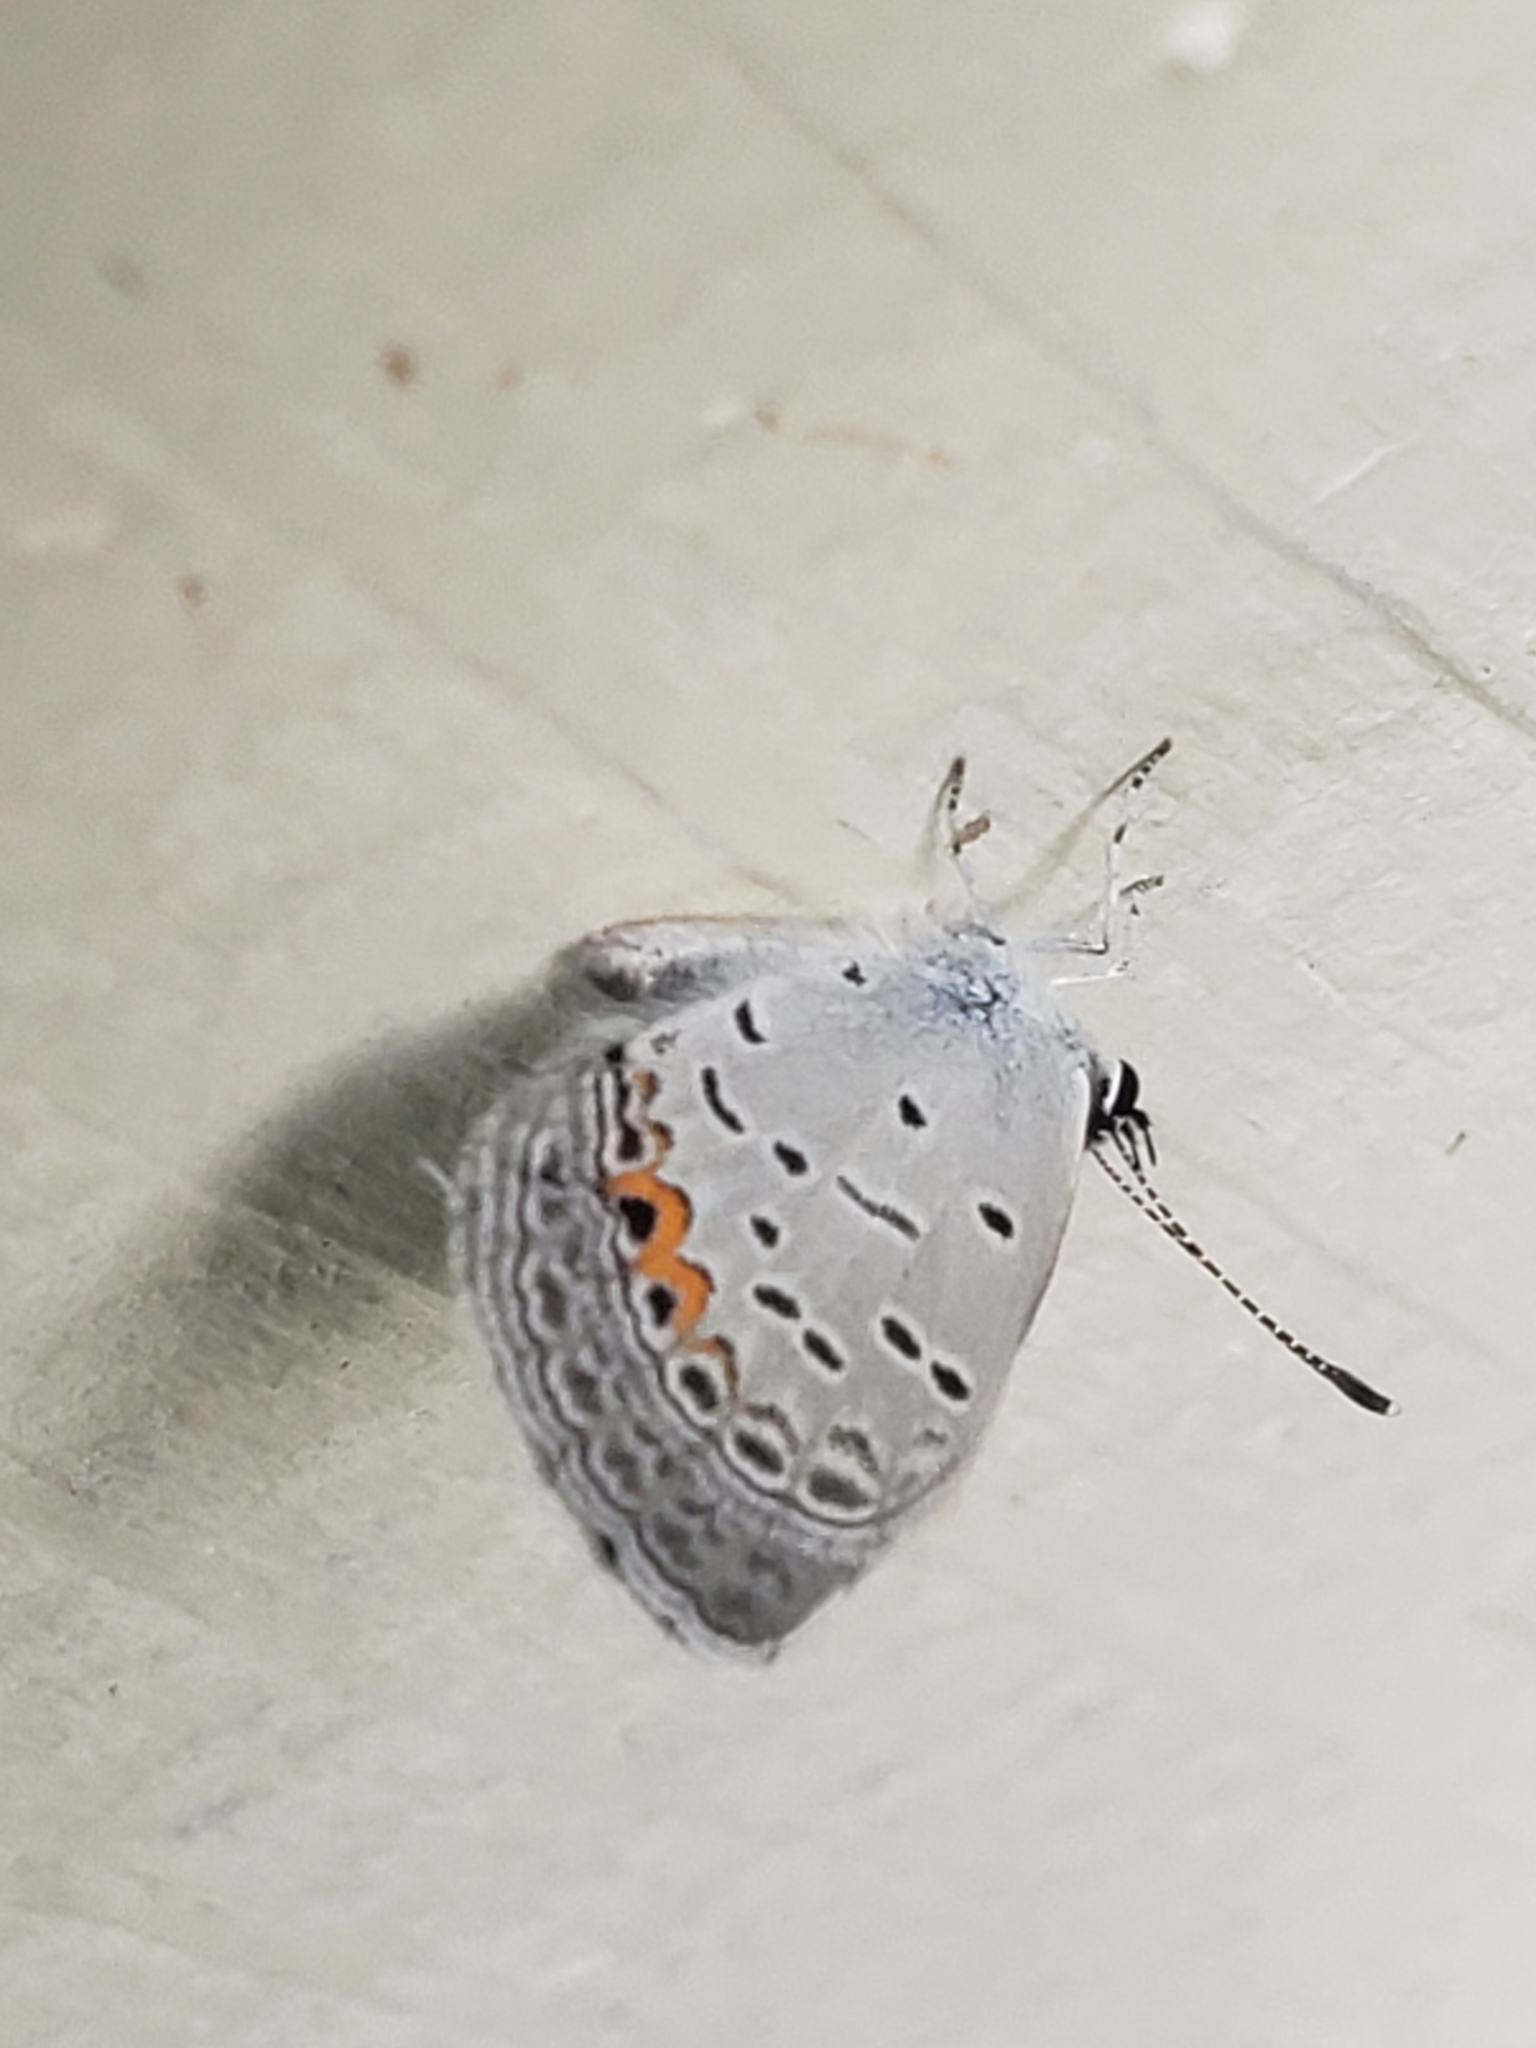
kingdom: Animalia
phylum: Arthropoda
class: Insecta
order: Lepidoptera
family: Lycaenidae
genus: Elkalyce
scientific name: Elkalyce comyntas
